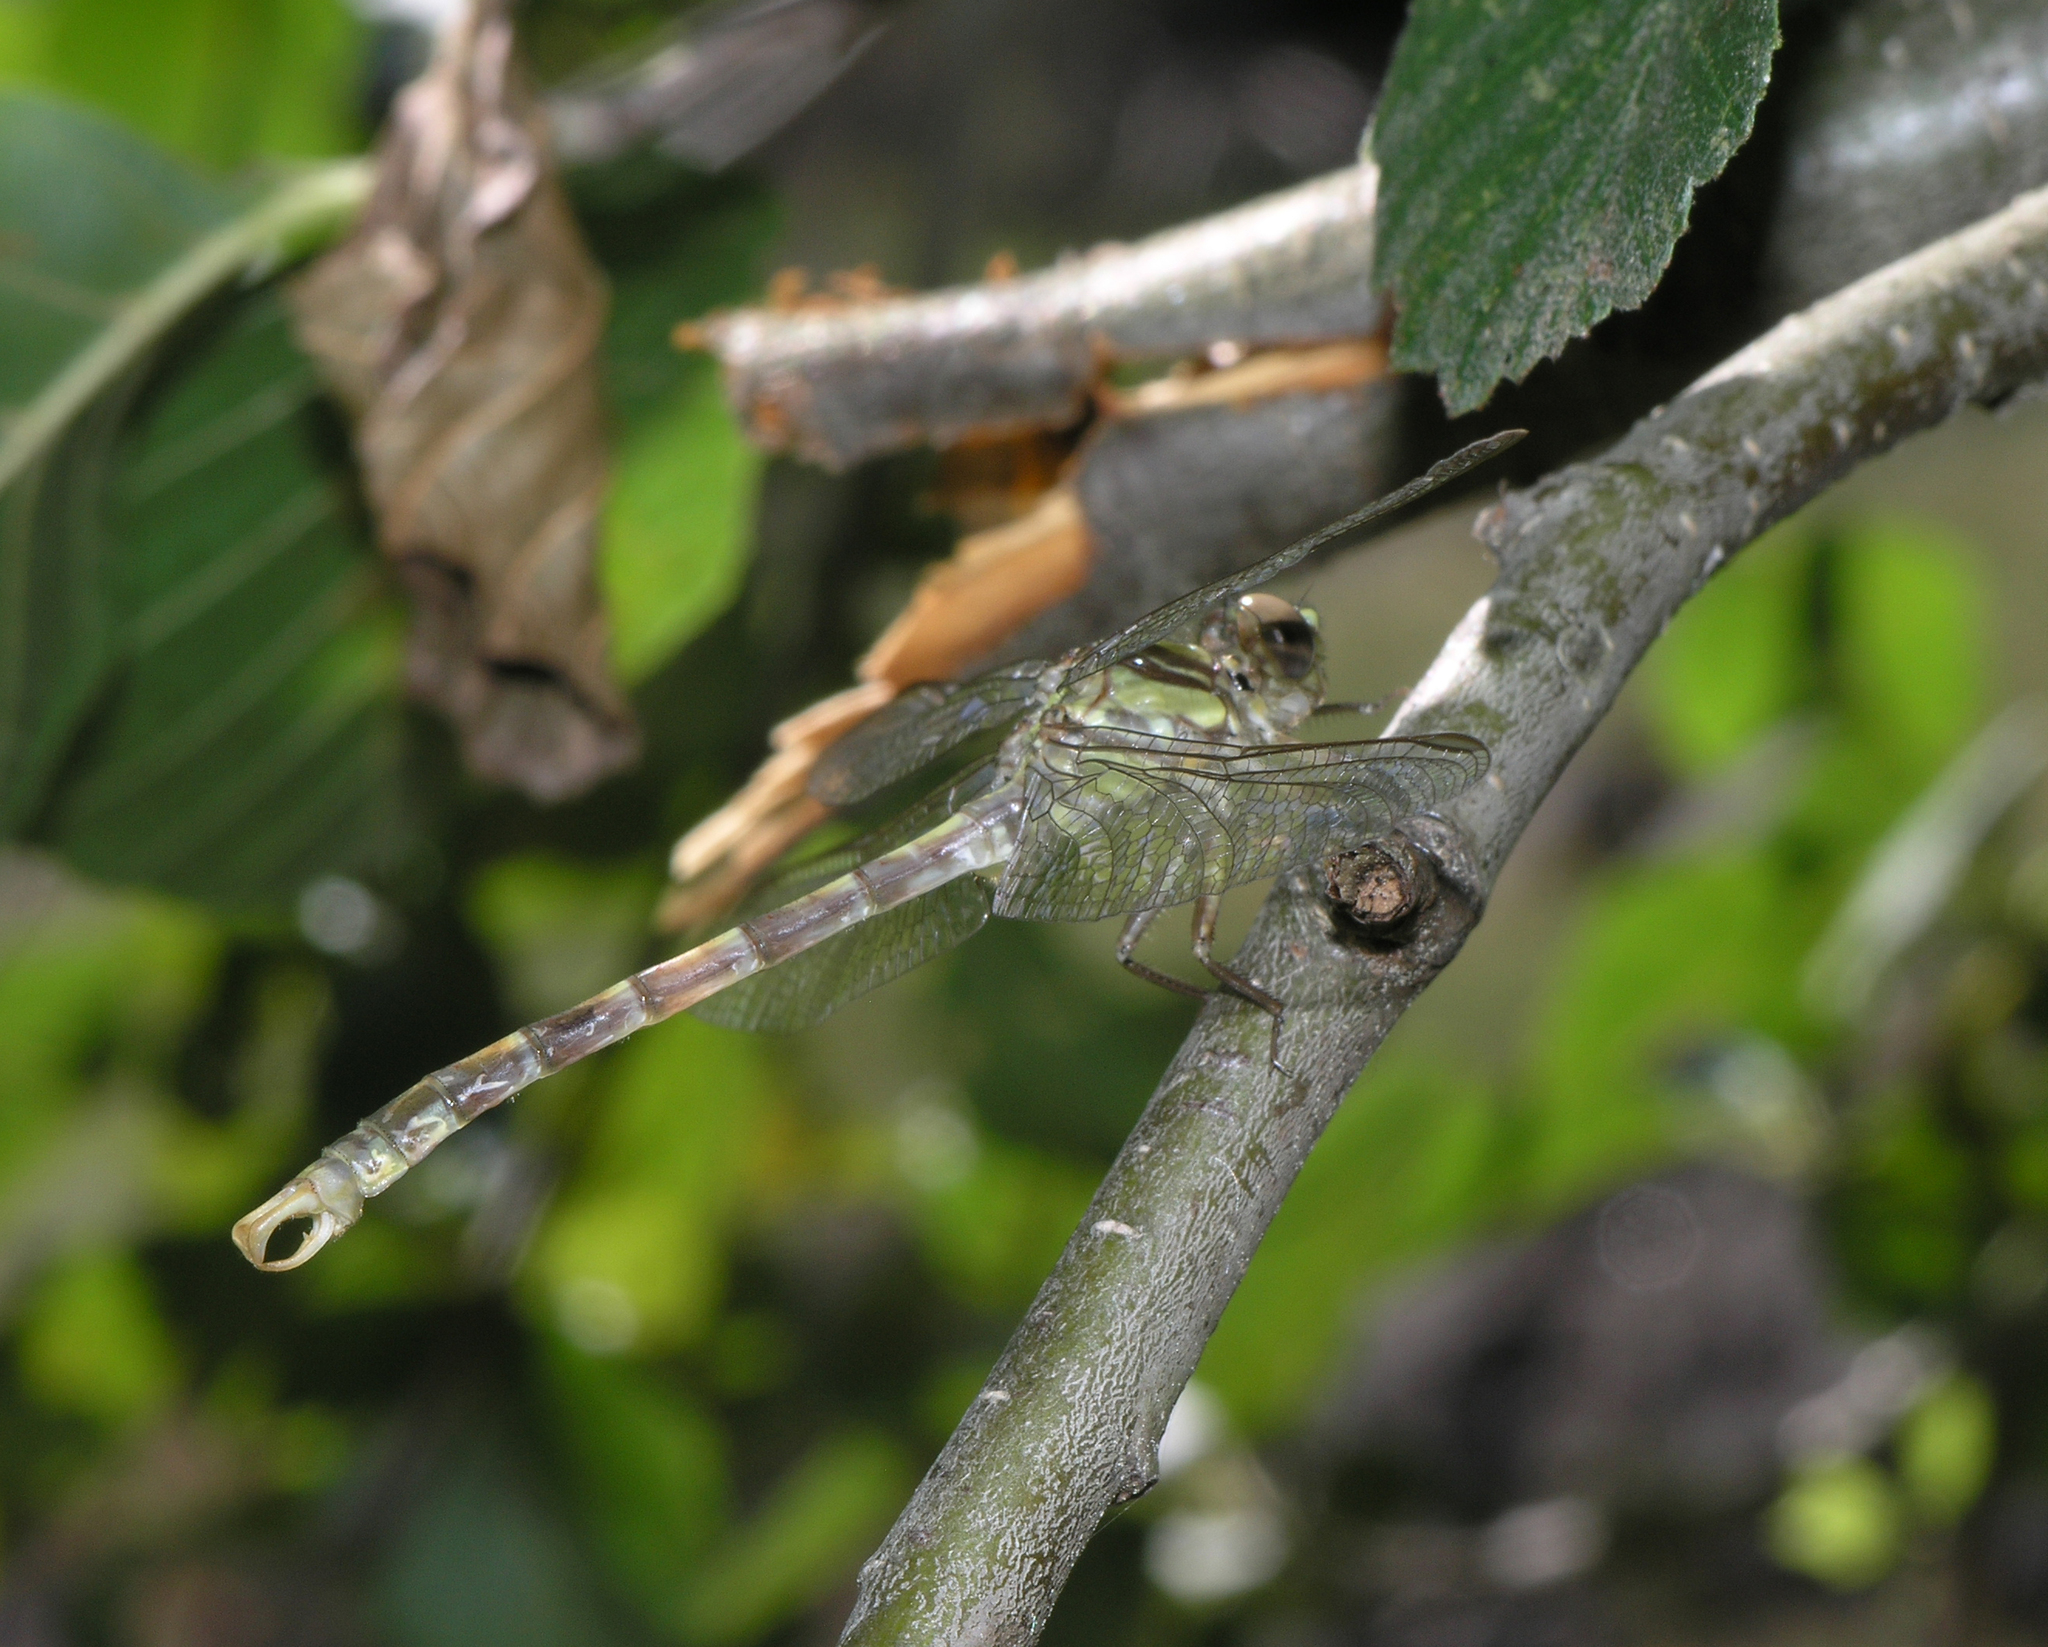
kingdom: Animalia
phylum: Arthropoda
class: Insecta
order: Odonata
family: Gomphidae
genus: Onychogomphus
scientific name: Onychogomphus uncatus
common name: Large pincertail
